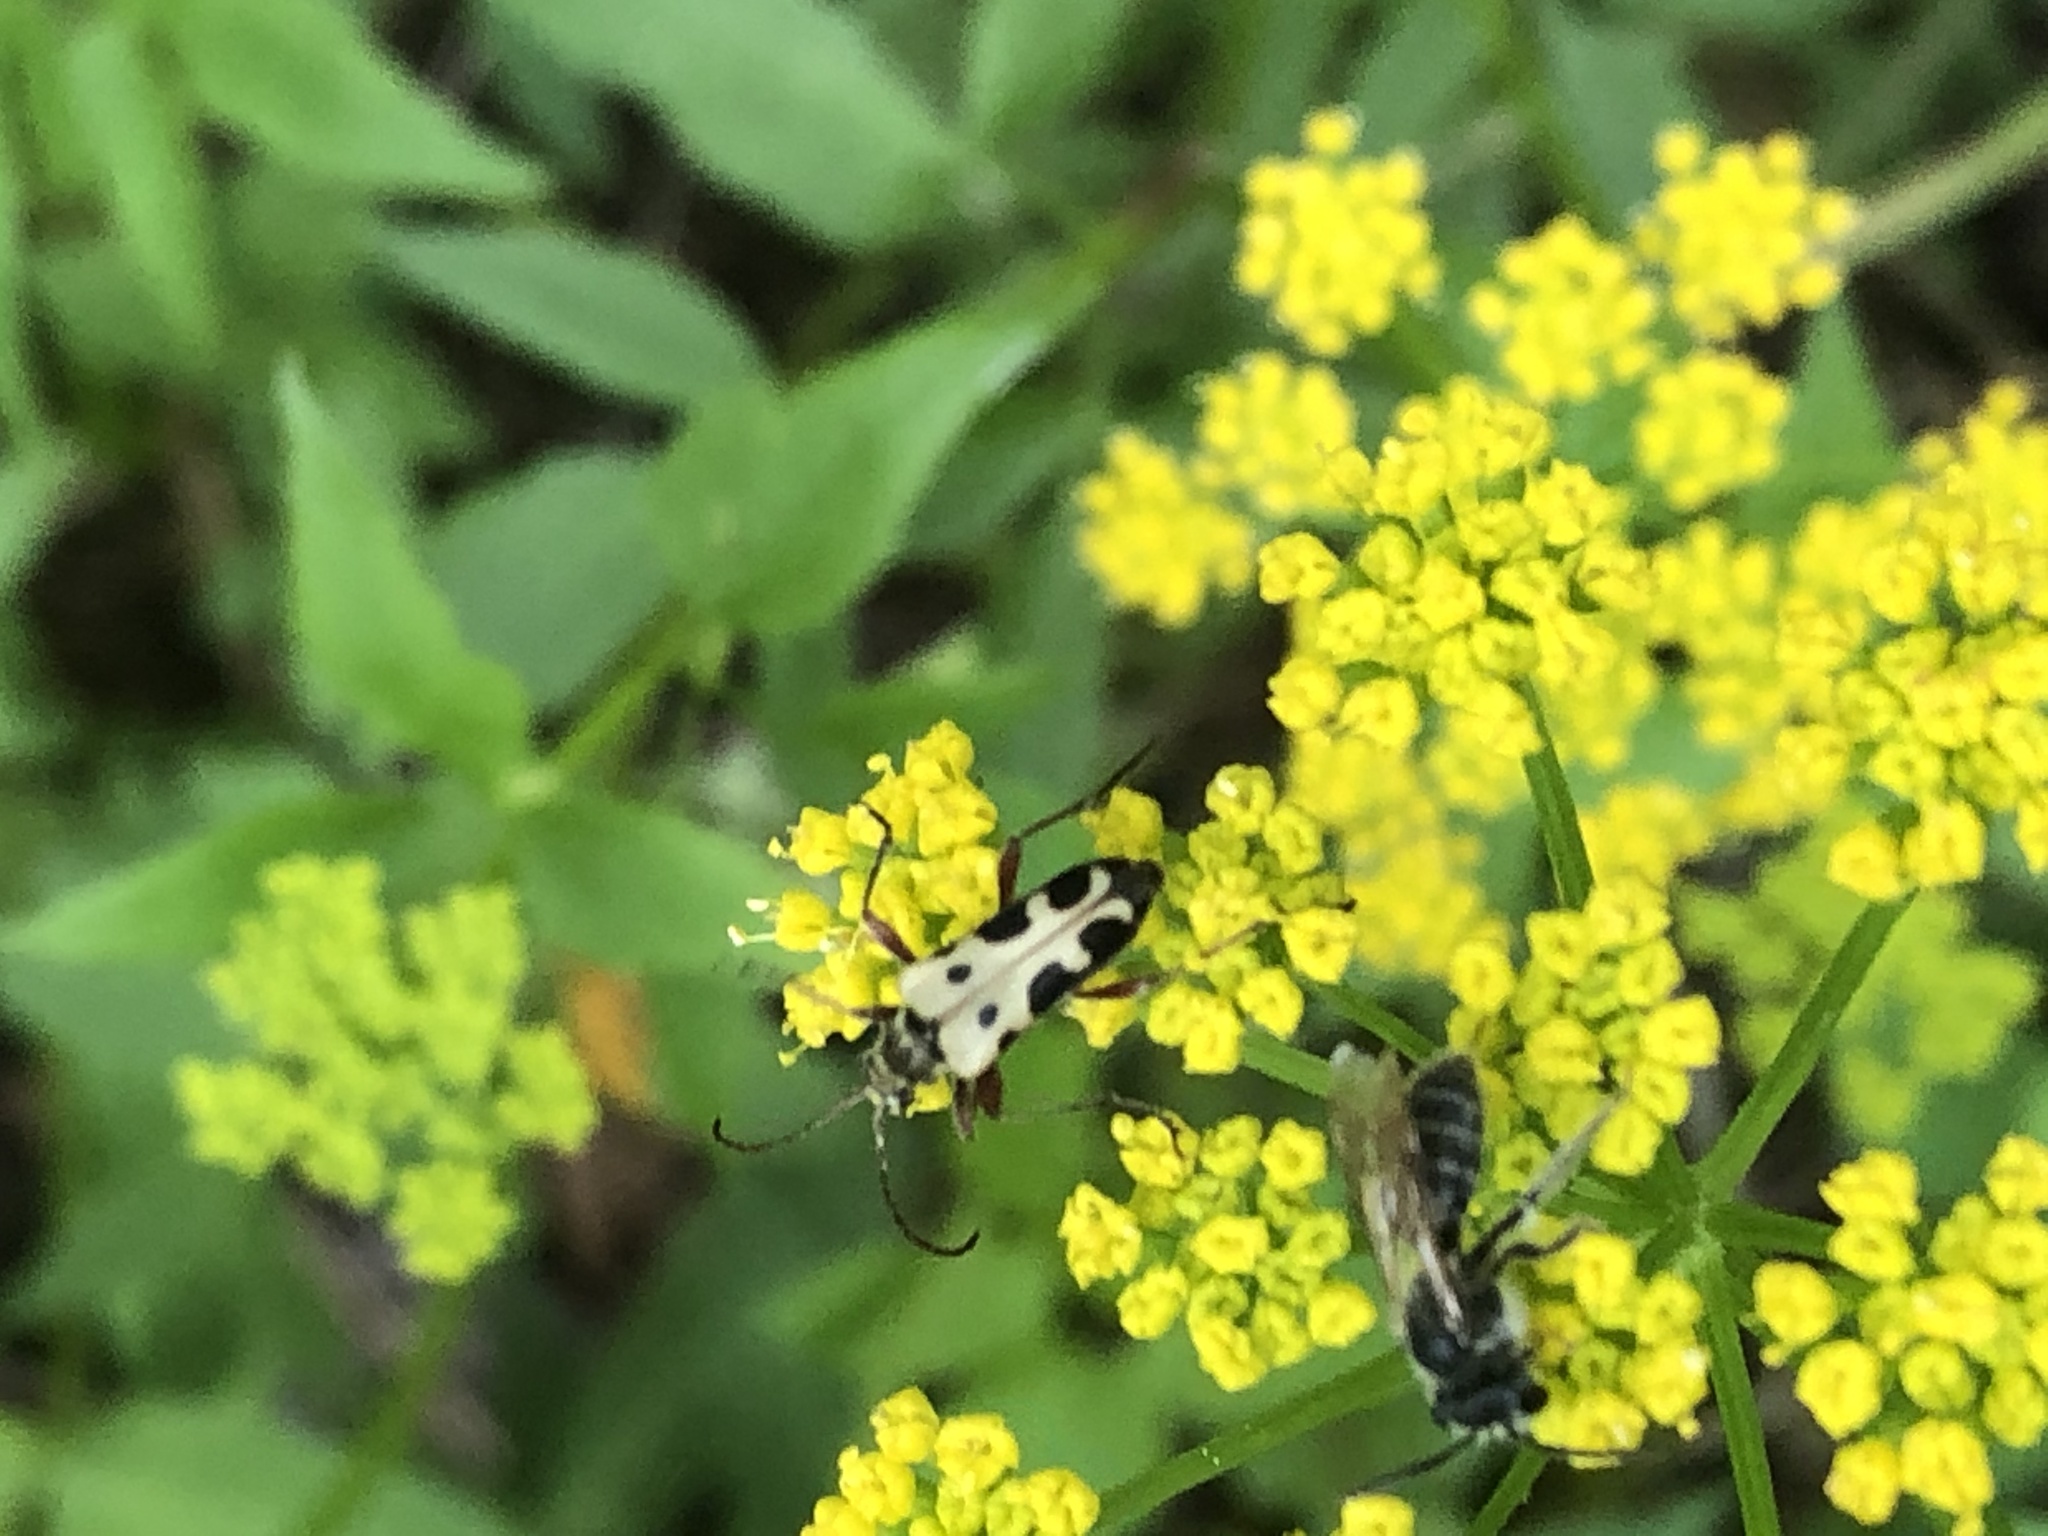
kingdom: Animalia
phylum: Arthropoda
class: Insecta
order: Coleoptera
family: Cerambycidae
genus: Evodinus
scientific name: Evodinus monticola
